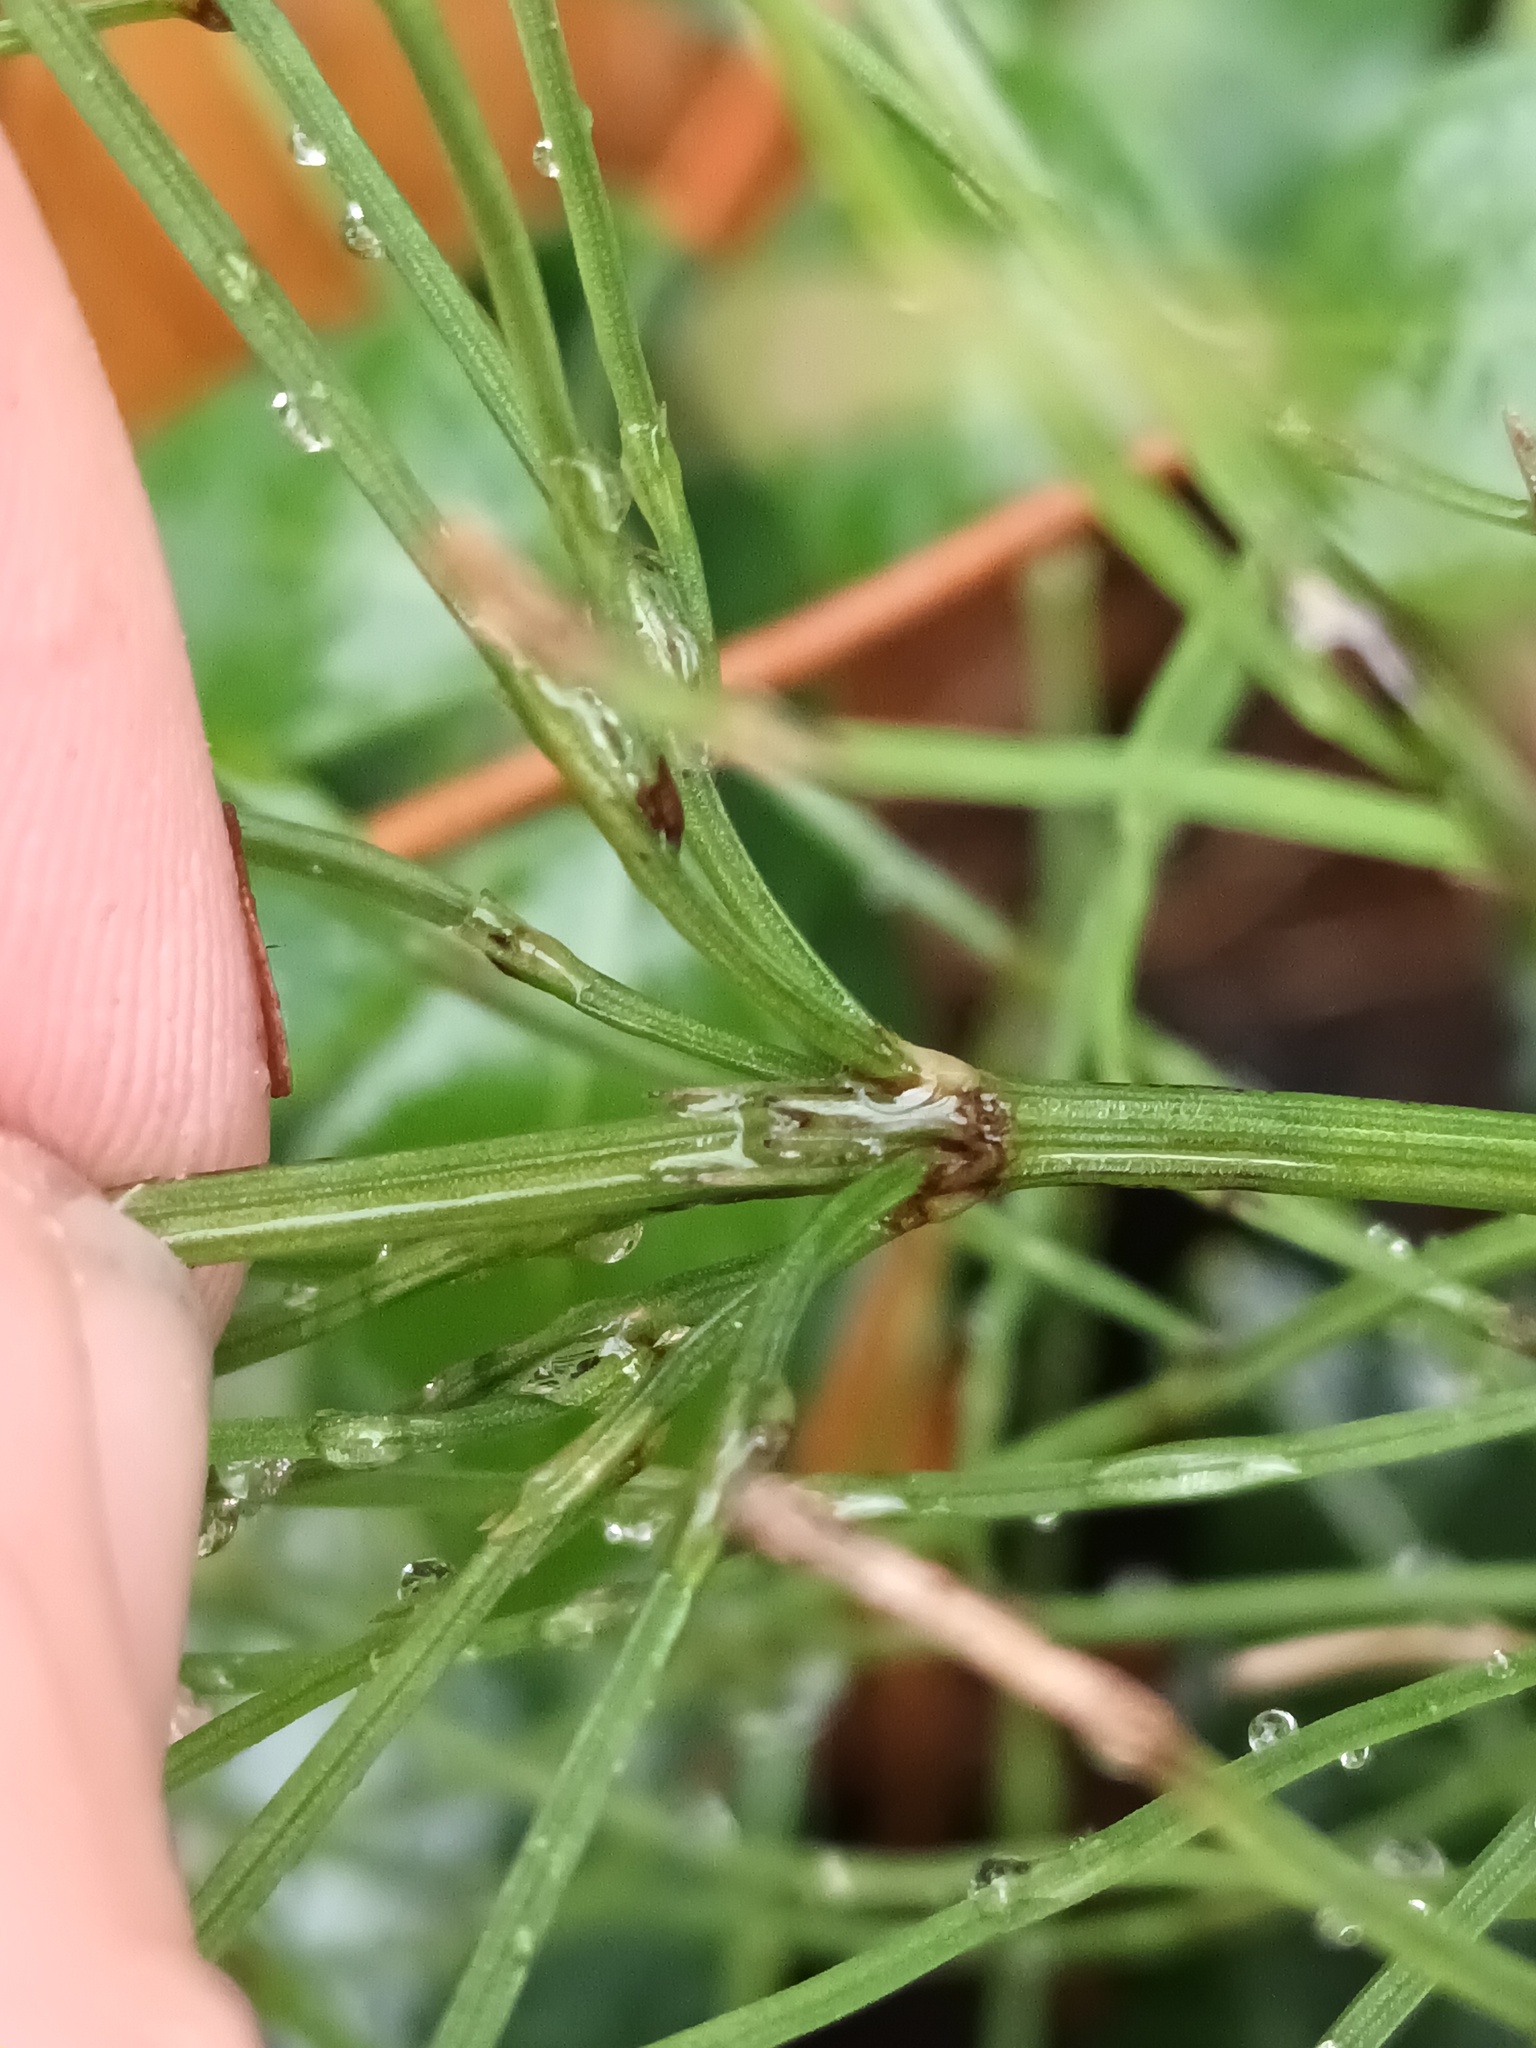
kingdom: Plantae
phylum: Tracheophyta
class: Polypodiopsida
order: Equisetales
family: Equisetaceae
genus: Equisetum
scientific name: Equisetum arvense
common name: Field horsetail
